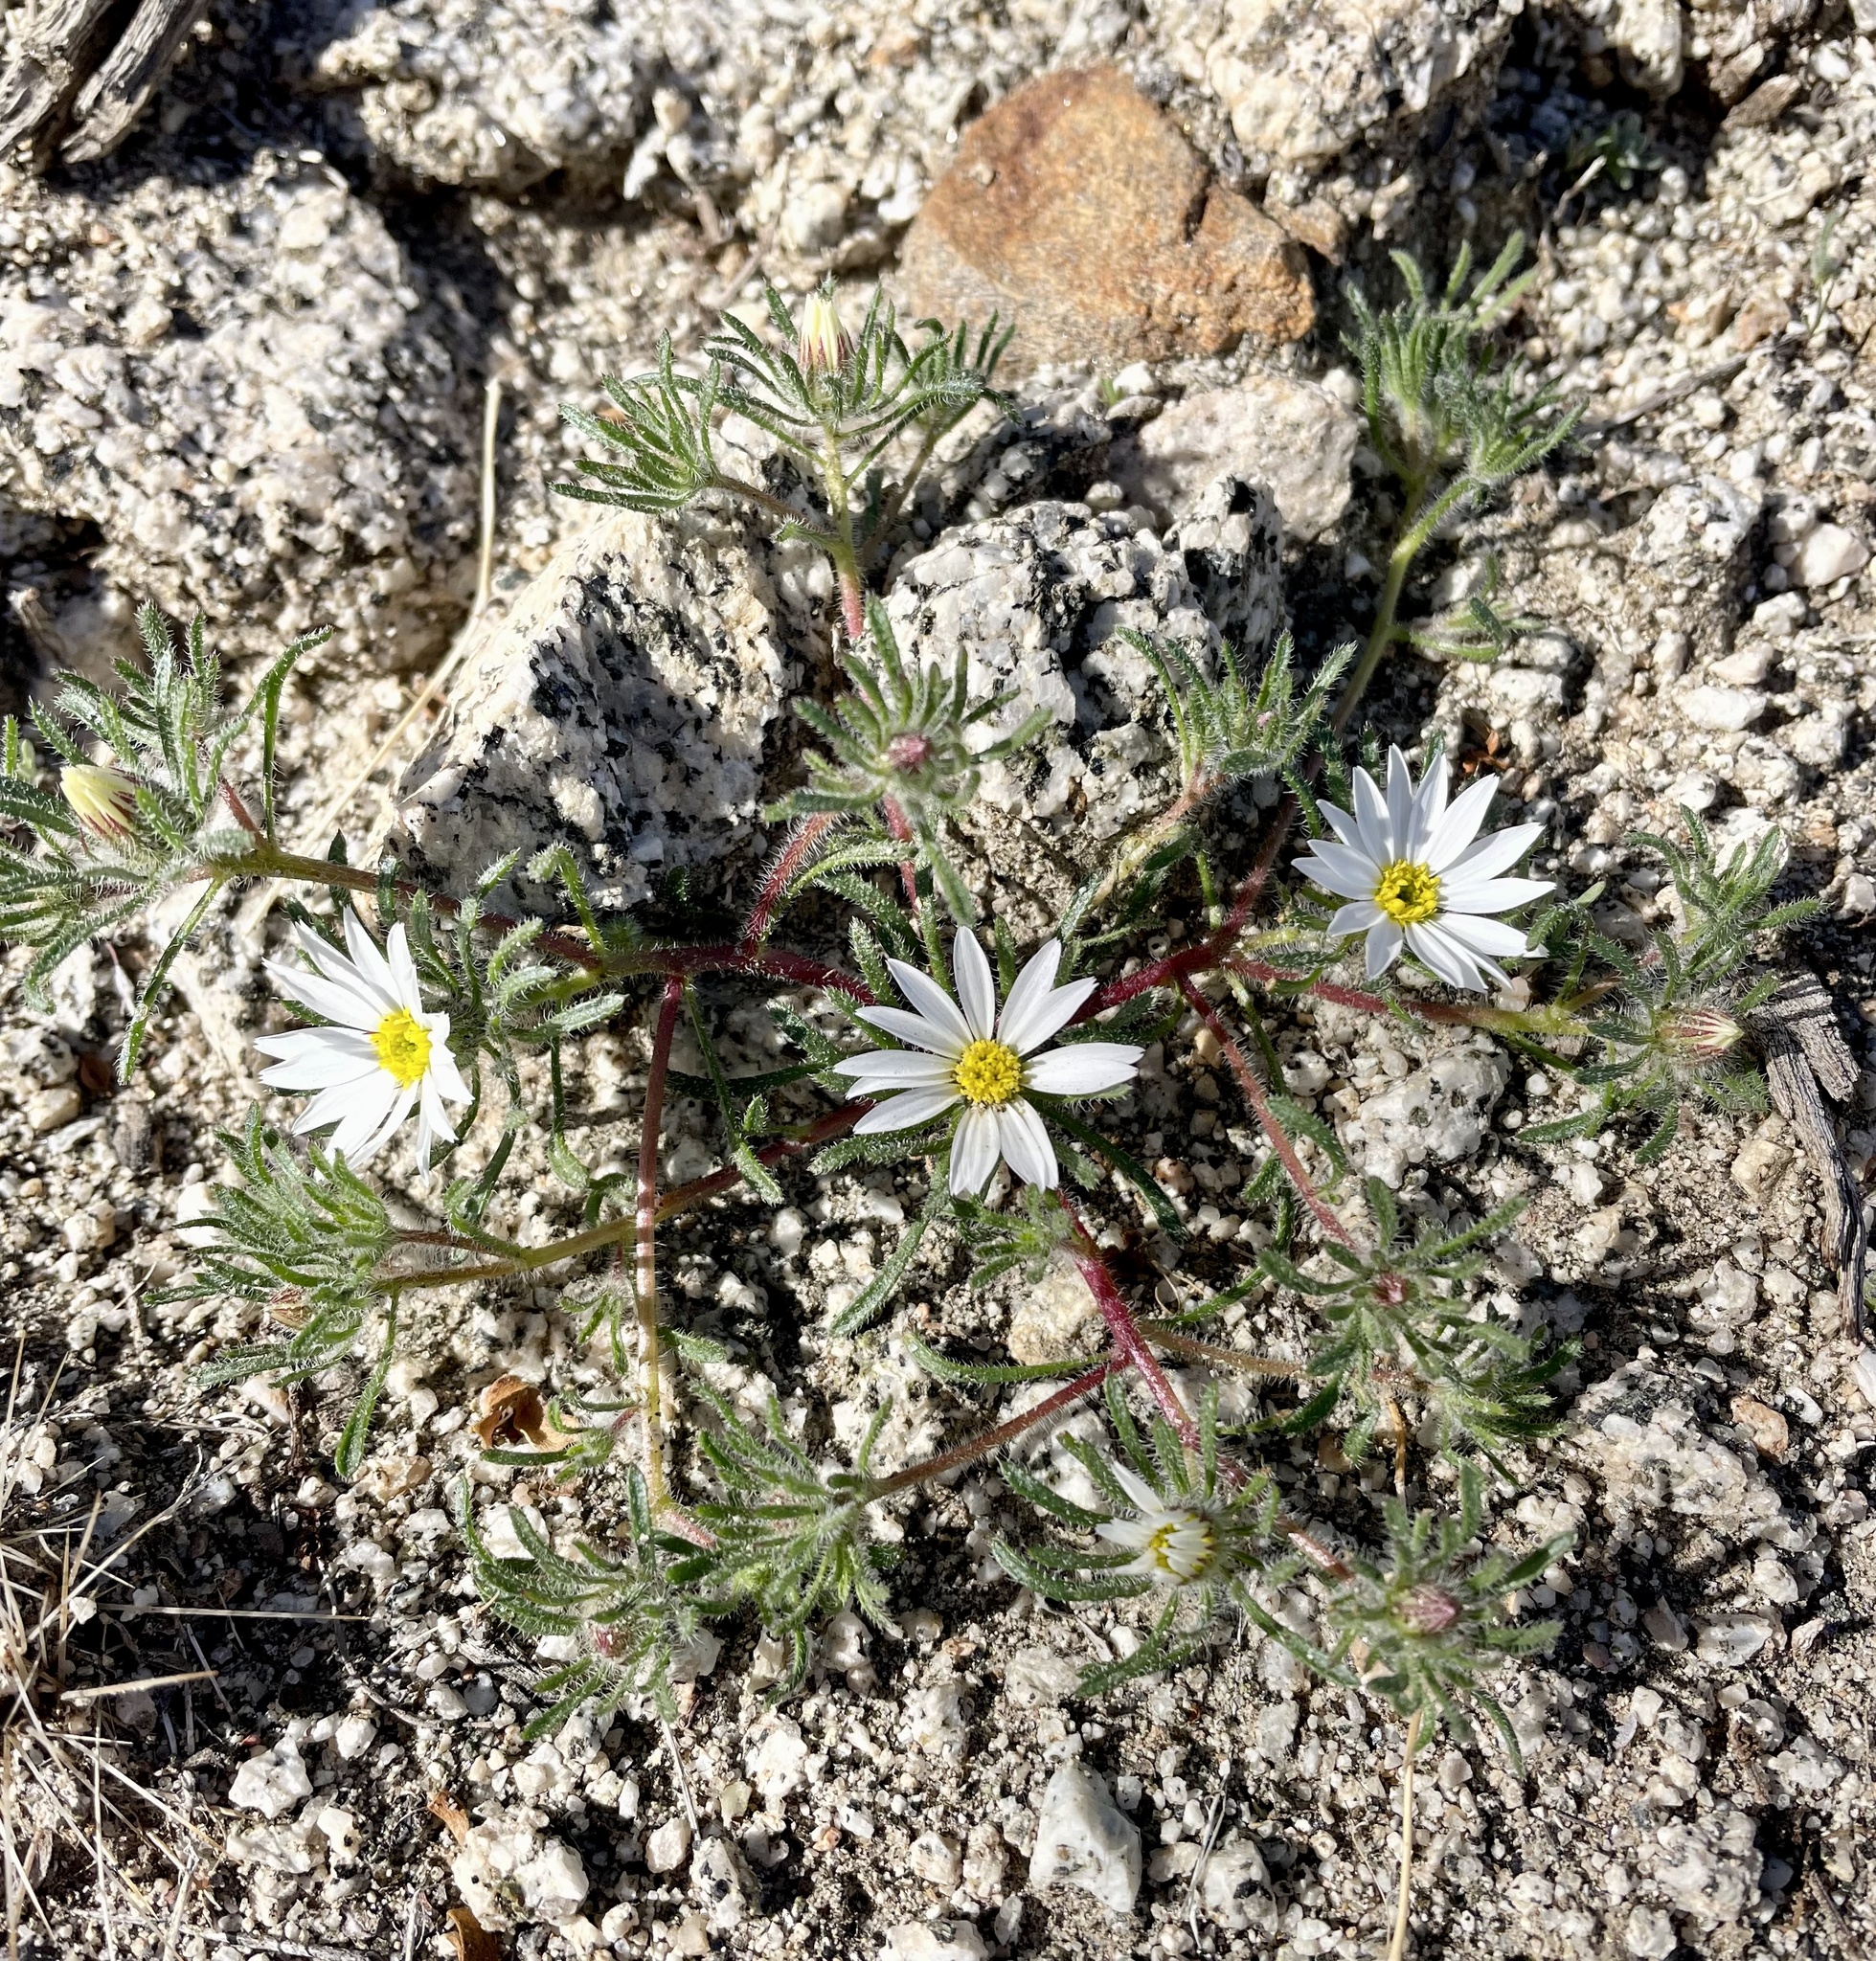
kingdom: Plantae
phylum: Tracheophyta
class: Magnoliopsida
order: Asterales
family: Asteraceae
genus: Monoptilon
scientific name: Monoptilon bellioides
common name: Bristly desertstar
